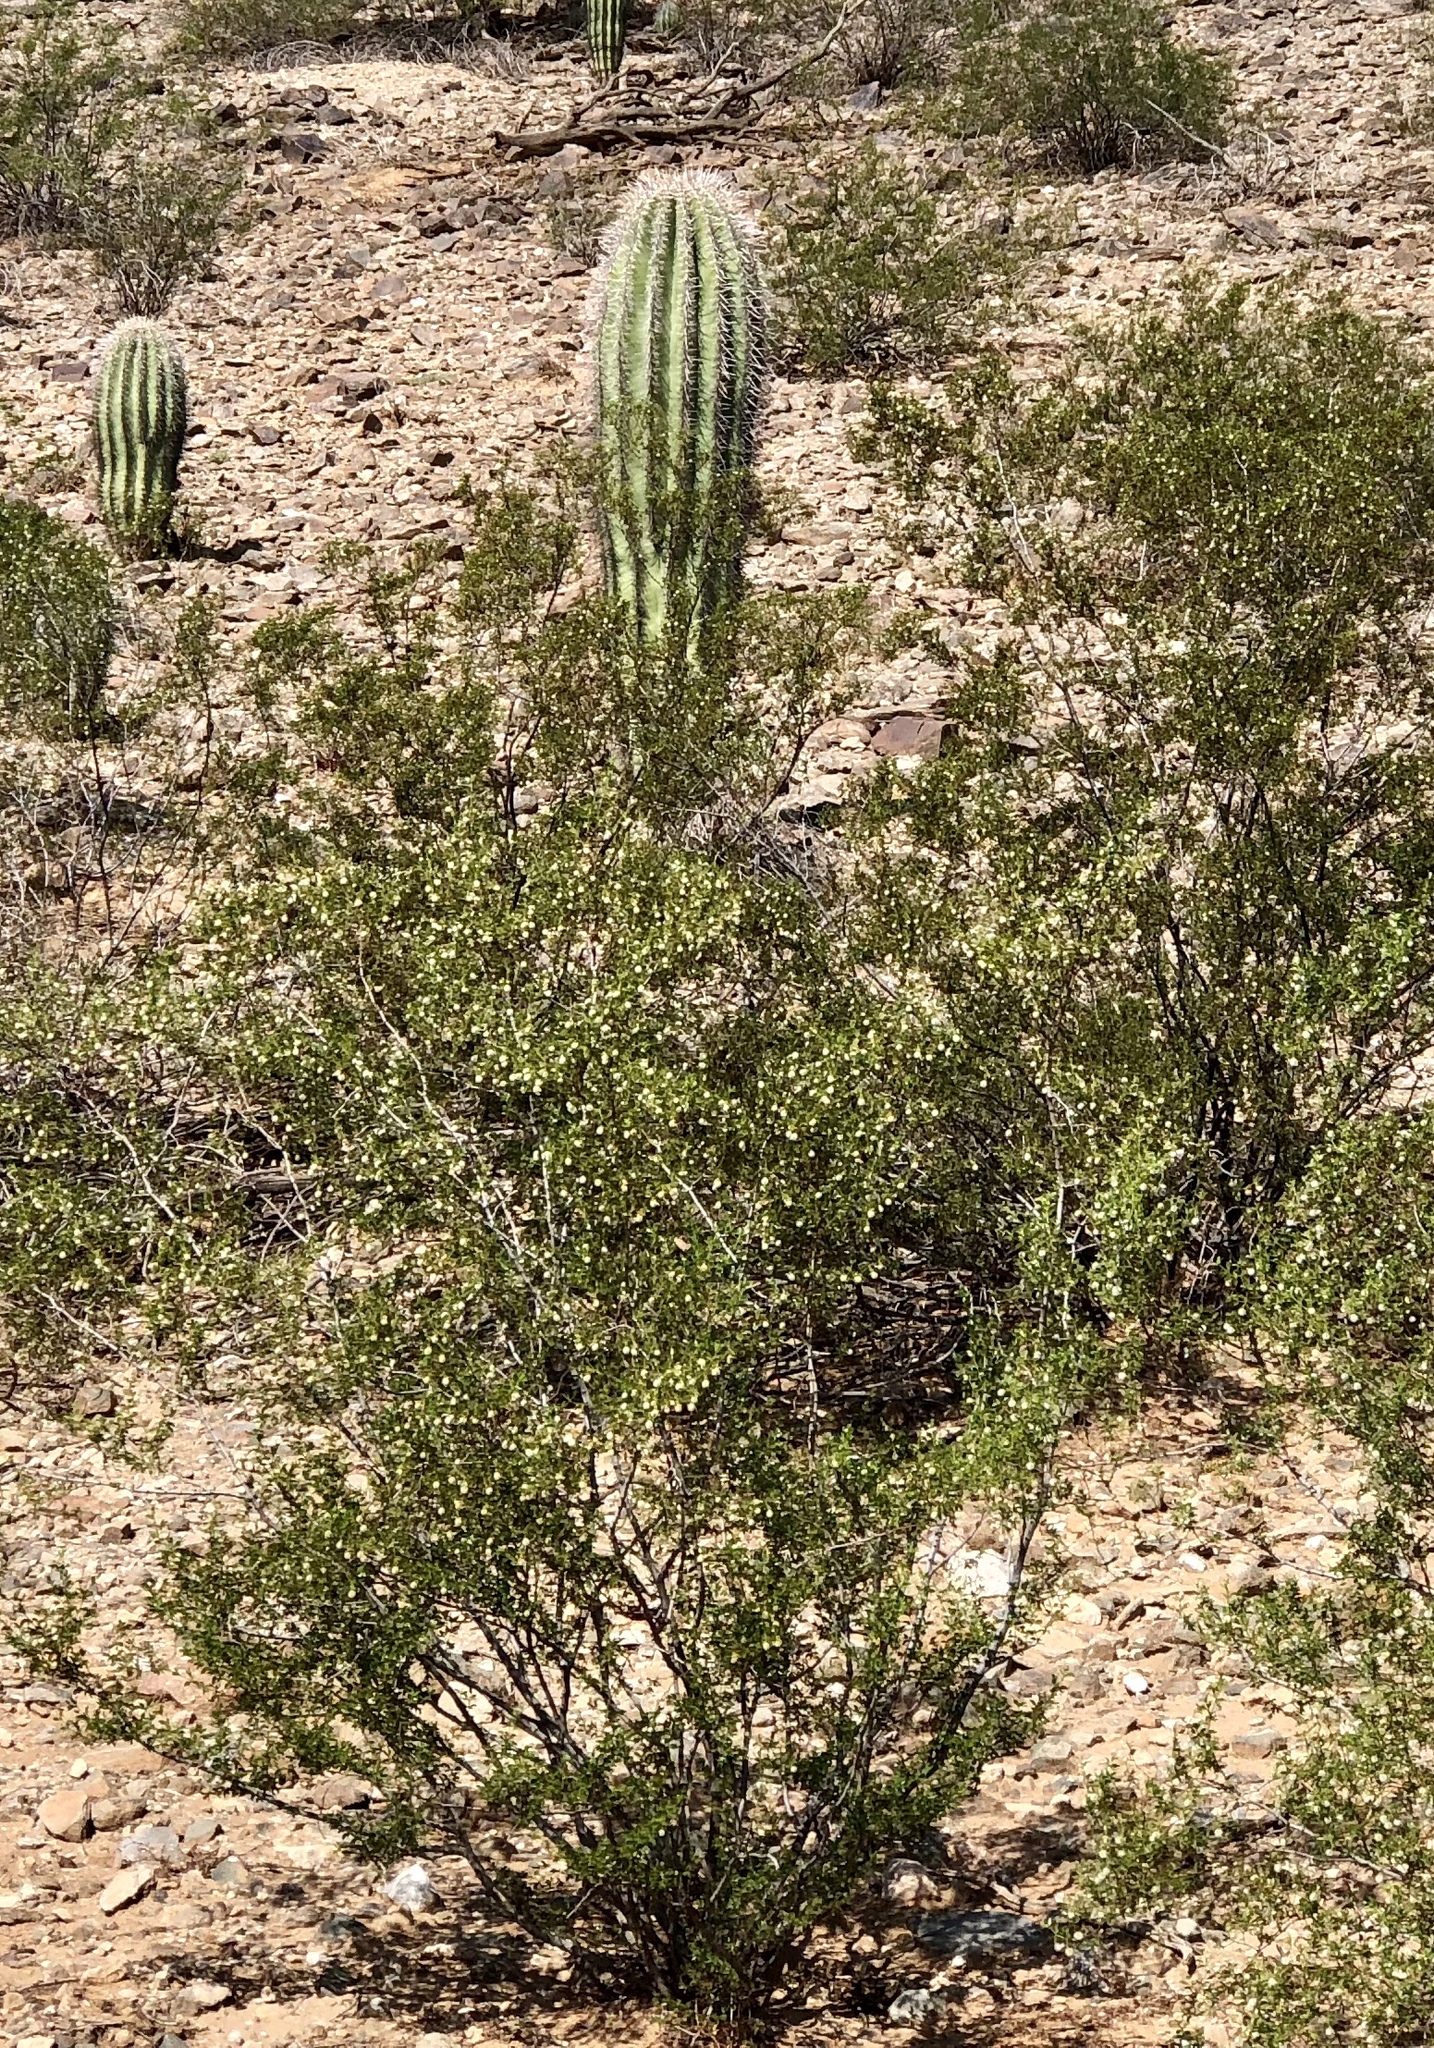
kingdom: Plantae
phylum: Tracheophyta
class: Magnoliopsida
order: Zygophyllales
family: Zygophyllaceae
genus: Larrea
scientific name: Larrea tridentata
